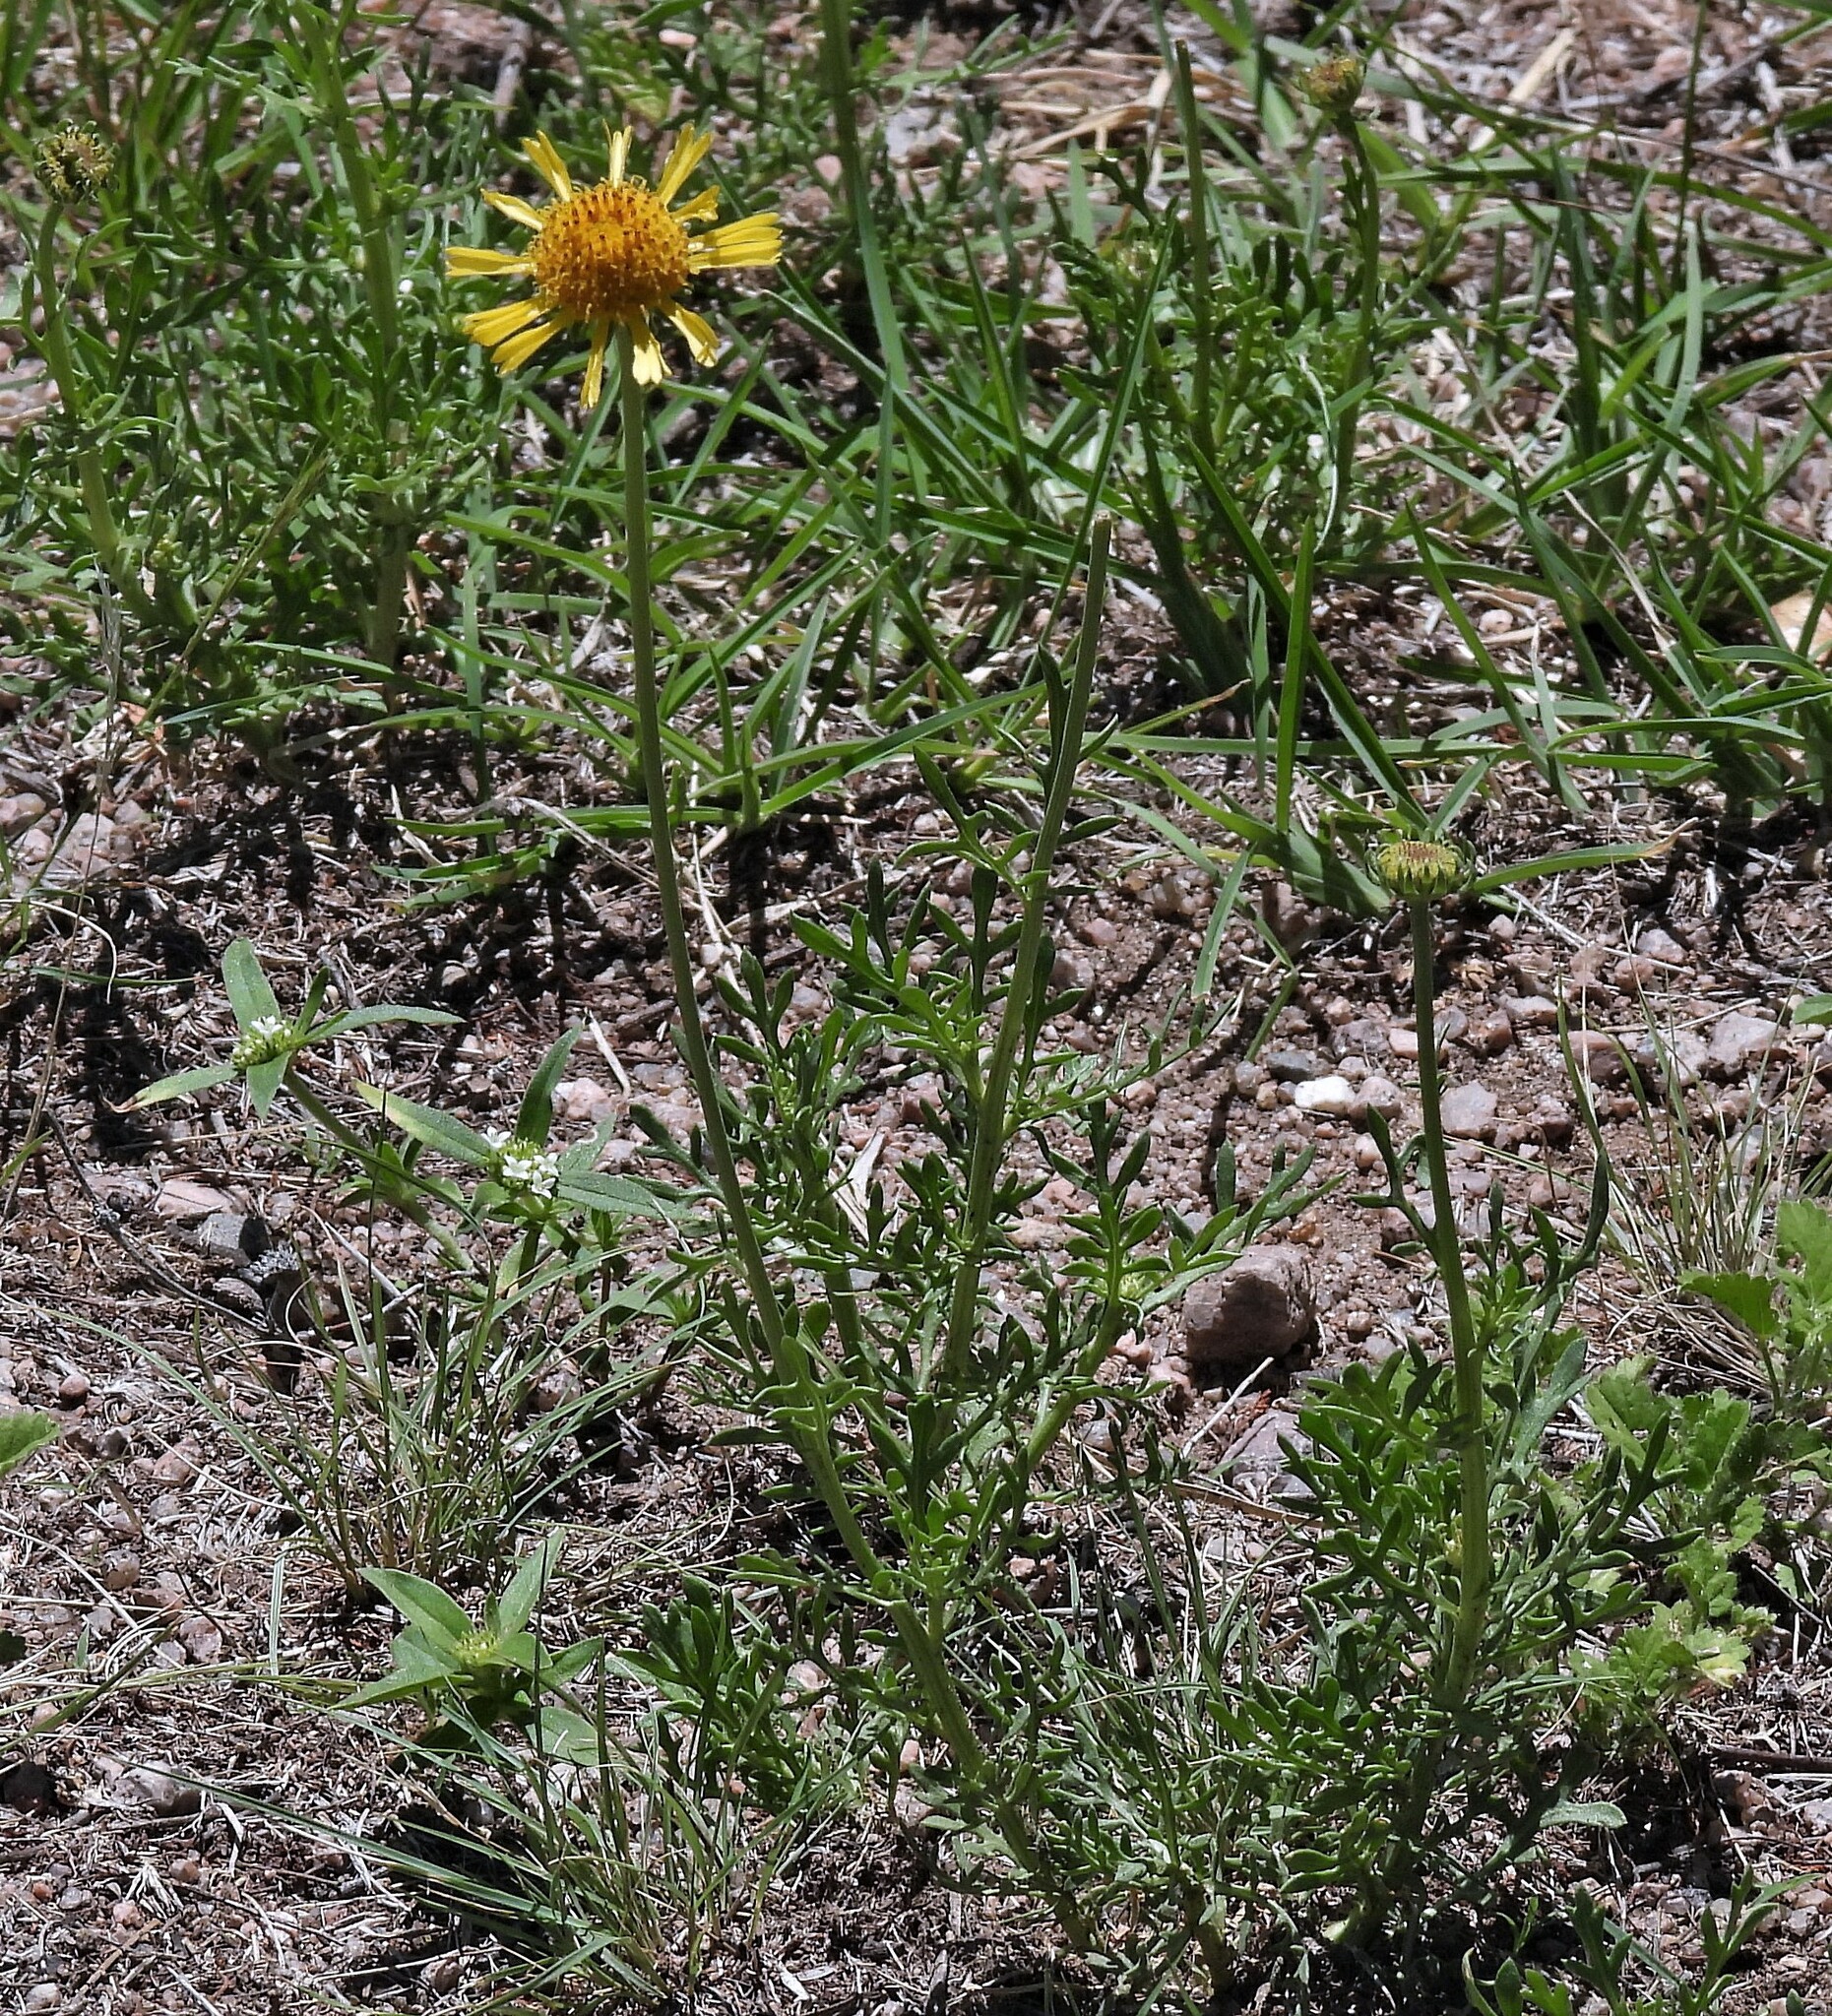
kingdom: Plantae
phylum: Tracheophyta
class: Magnoliopsida
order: Asterales
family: Asteraceae
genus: Gaillardia
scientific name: Gaillardia megapotamica
